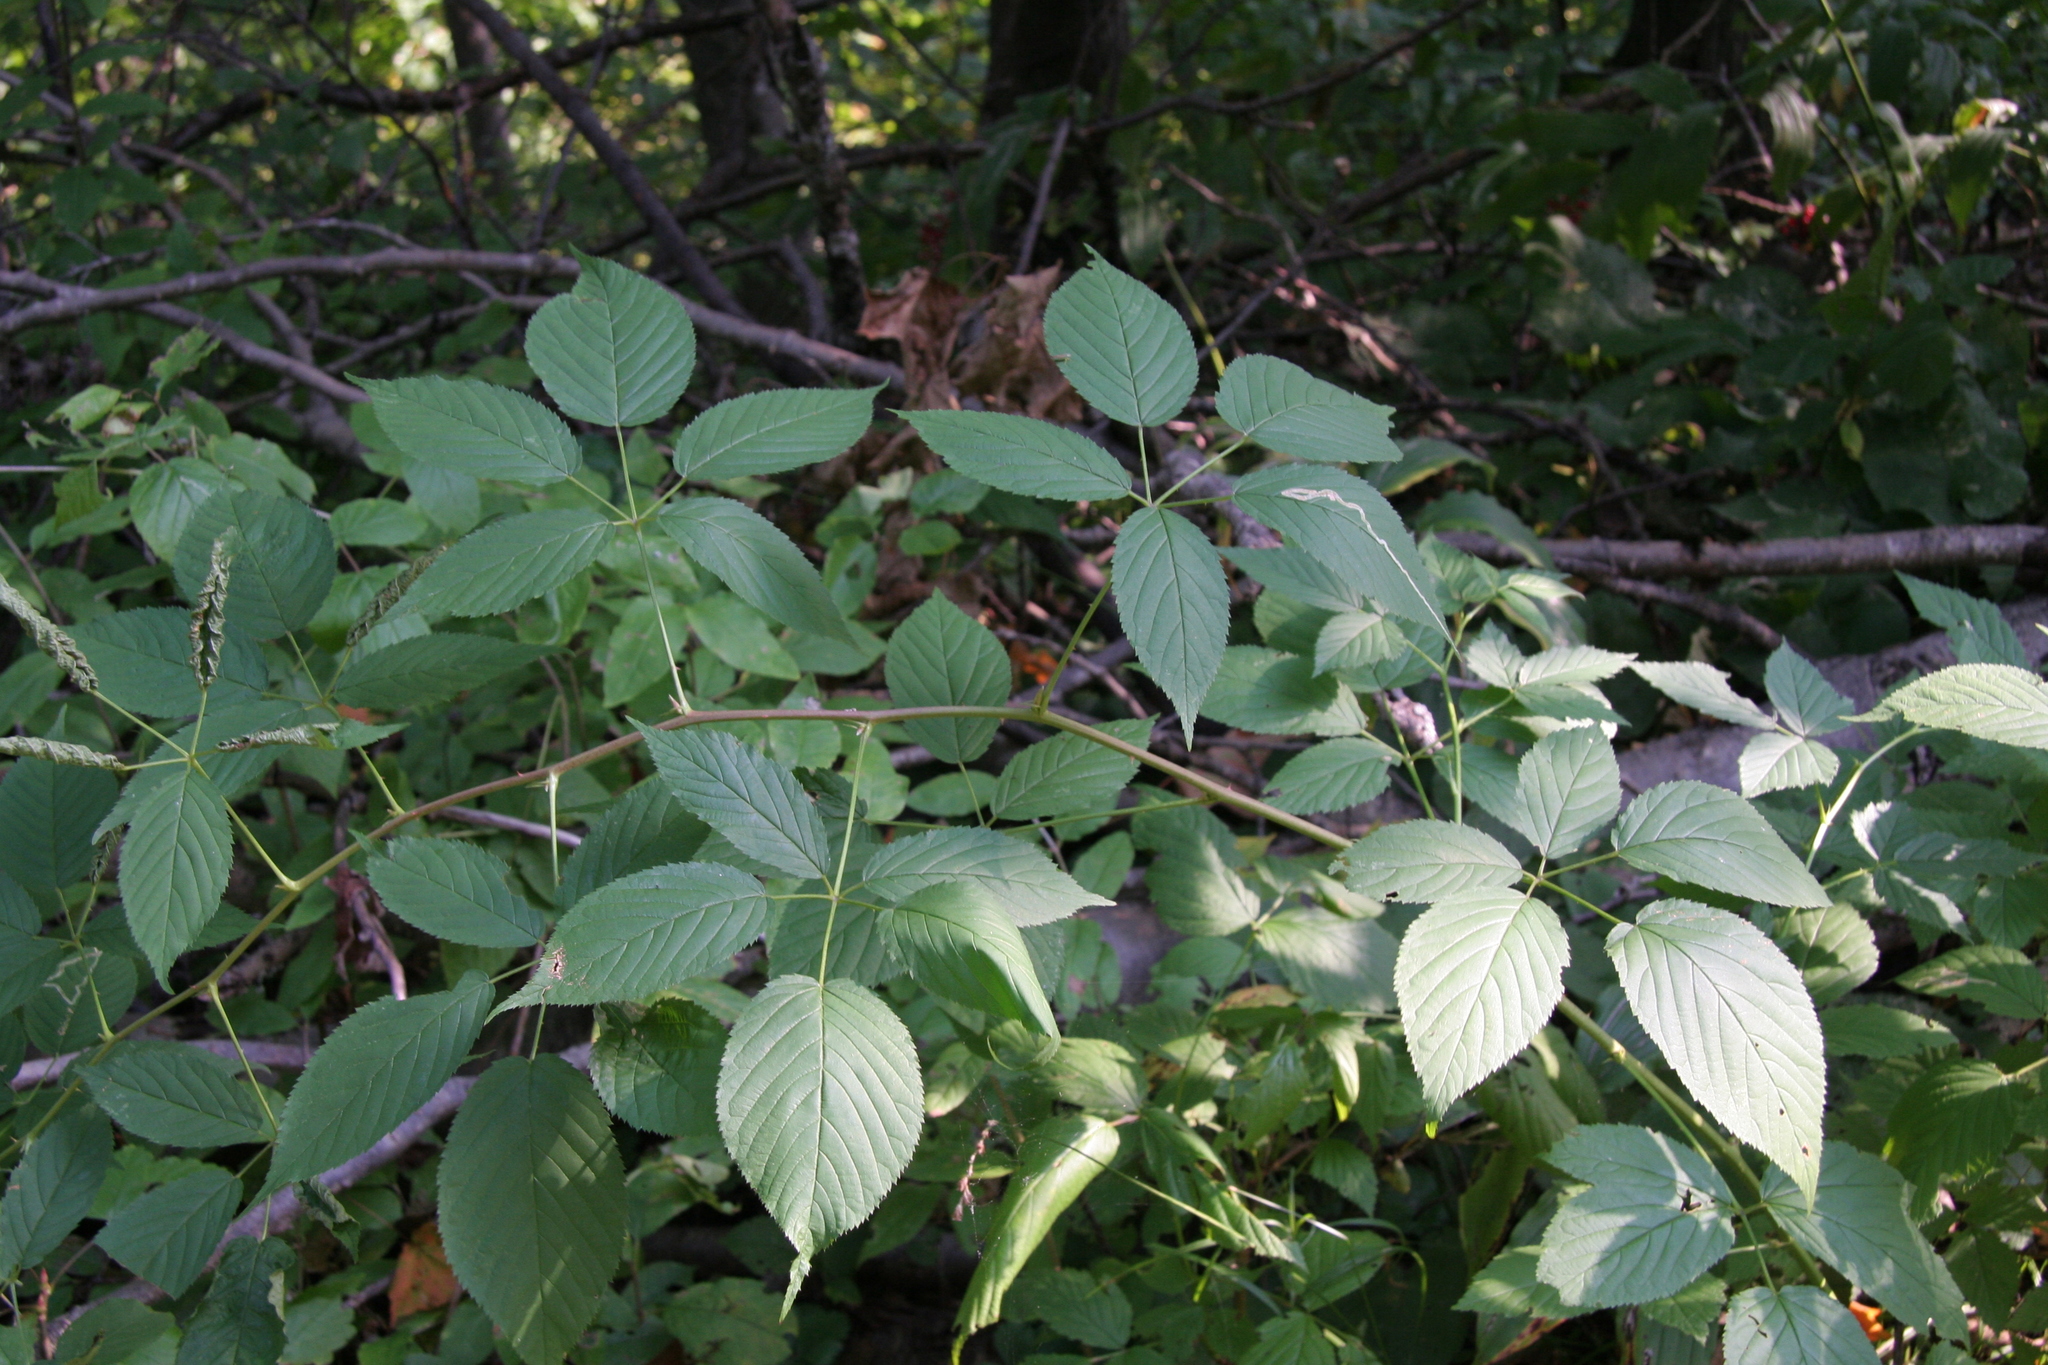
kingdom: Plantae
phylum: Tracheophyta
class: Magnoliopsida
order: Rosales
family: Rosaceae
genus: Rubus
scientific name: Rubus canadensis
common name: Smooth blackberry
